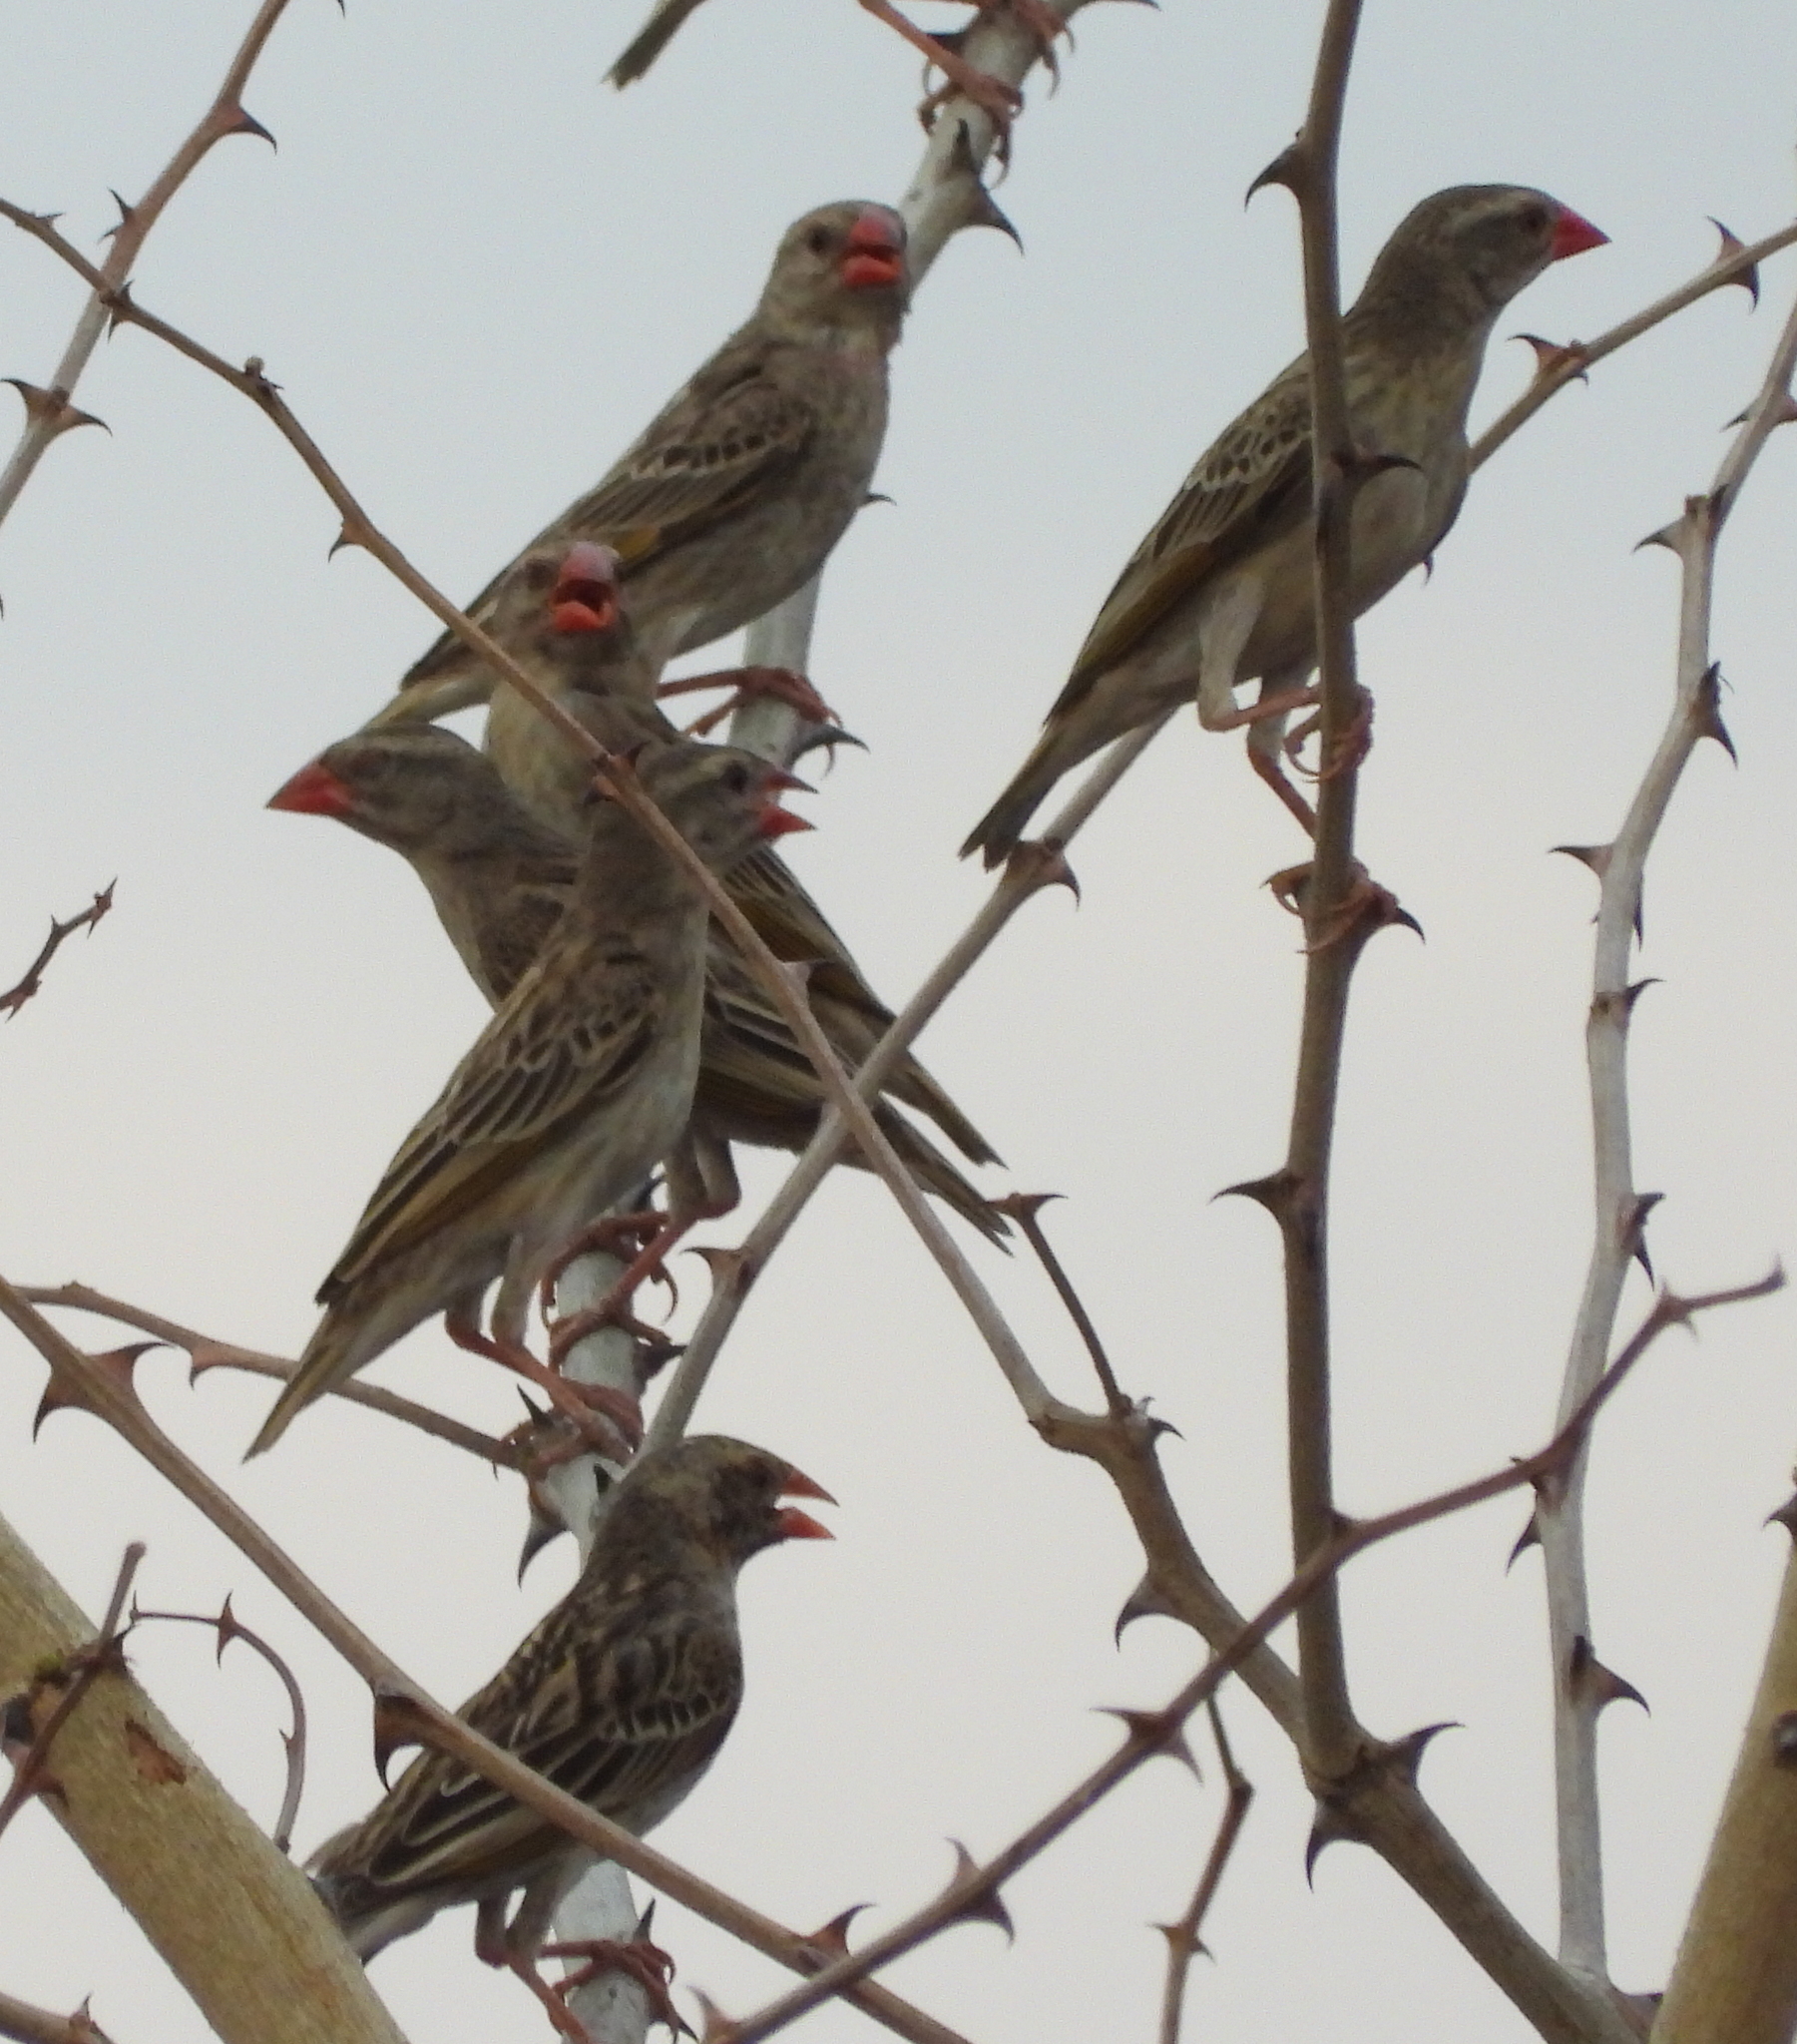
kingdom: Animalia
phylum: Chordata
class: Aves
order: Passeriformes
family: Ploceidae
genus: Quelea
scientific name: Quelea quelea
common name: Red-billed quelea
